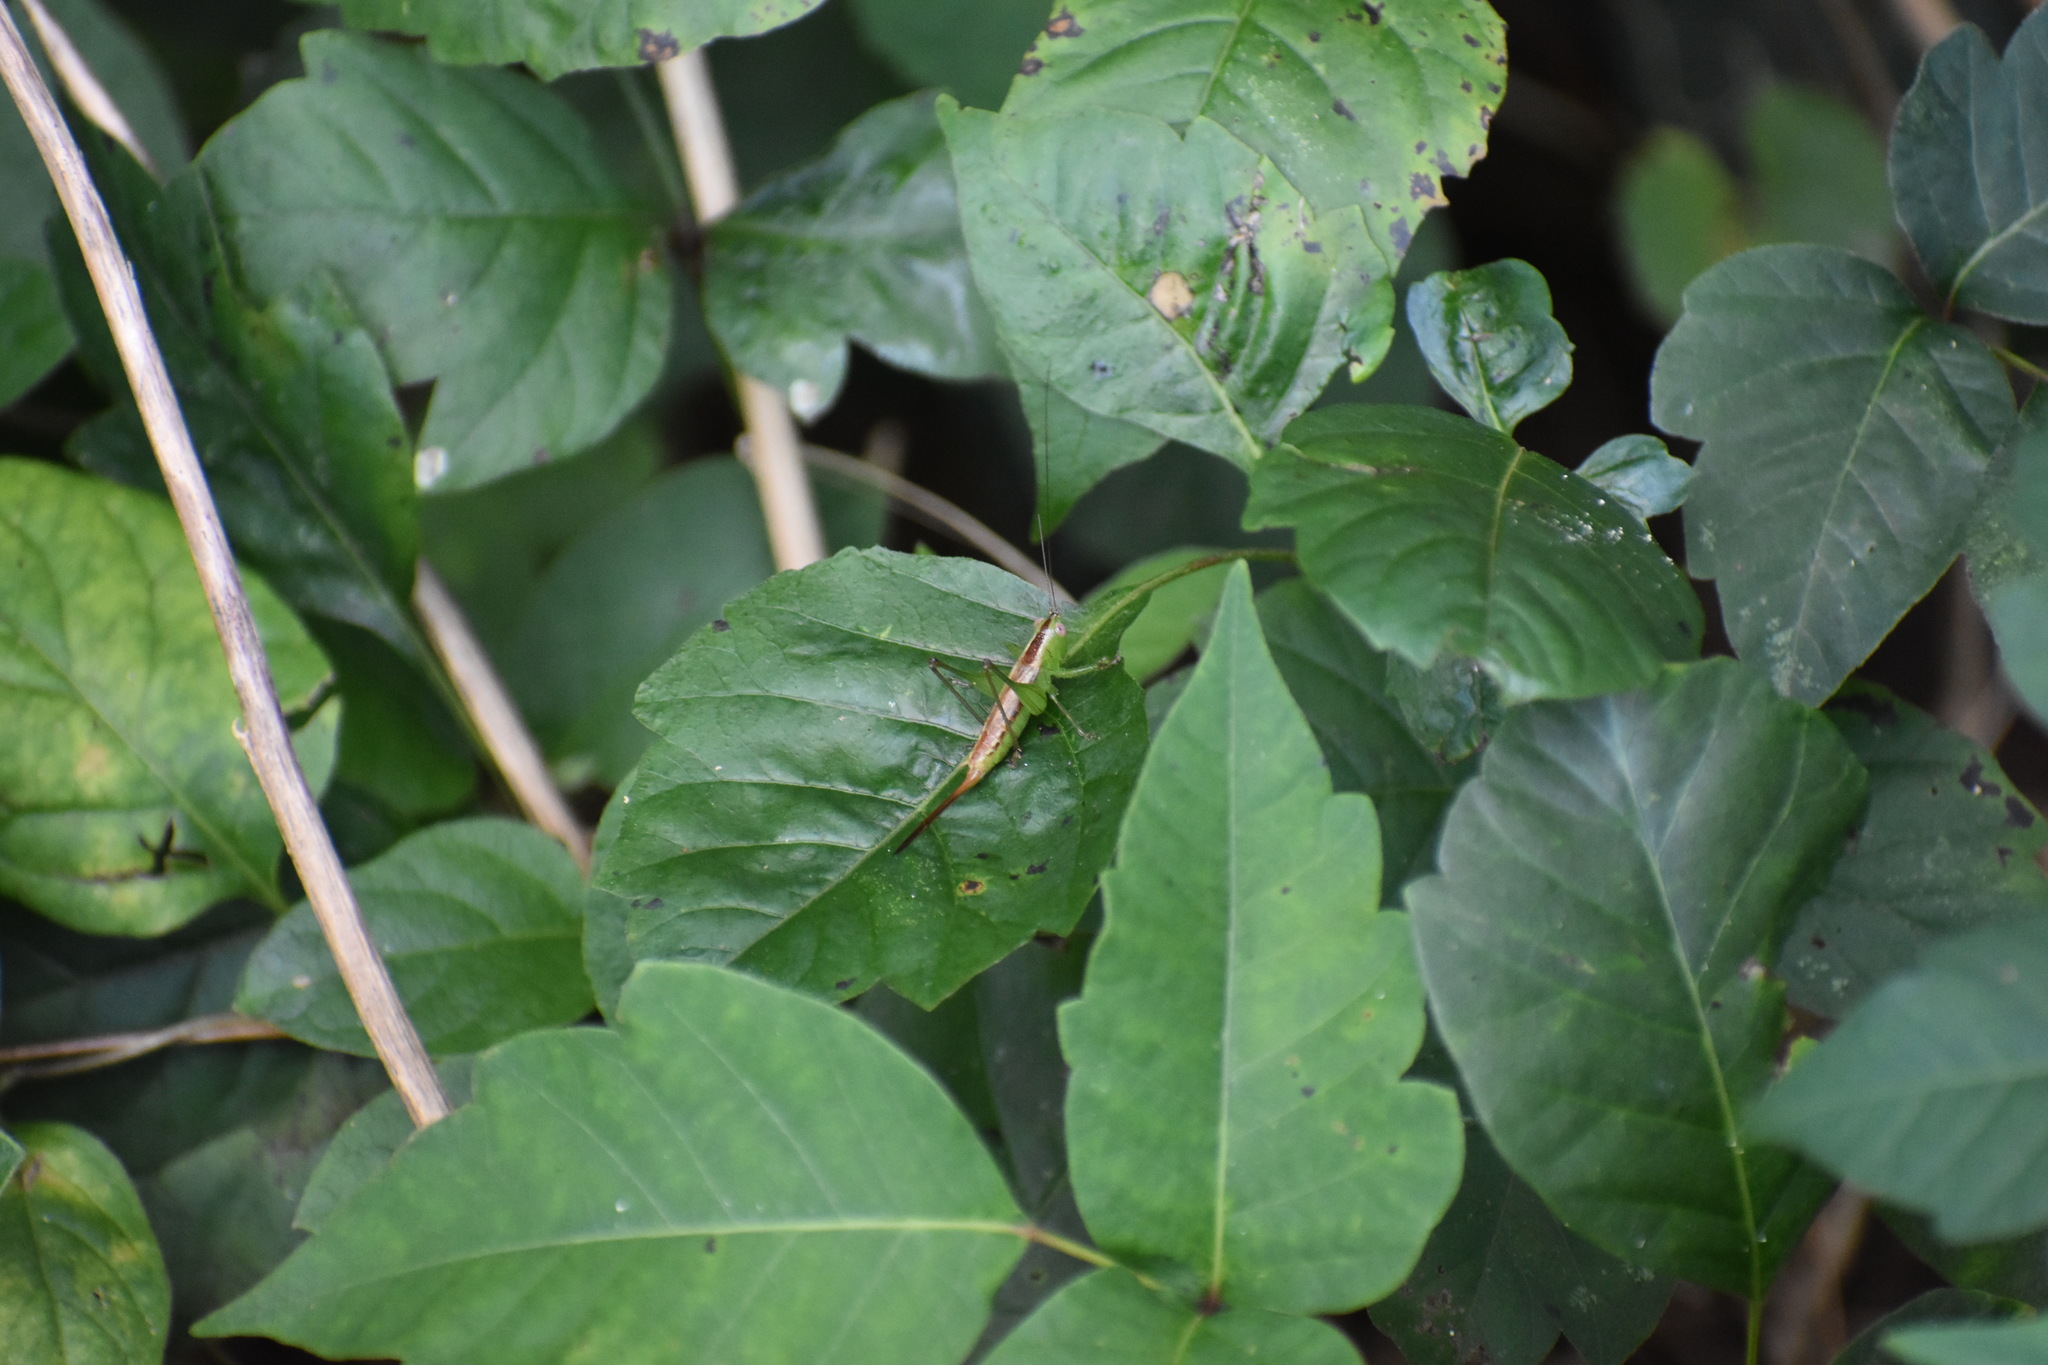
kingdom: Animalia
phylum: Arthropoda
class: Insecta
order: Orthoptera
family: Tettigoniidae
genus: Conocephalus
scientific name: Conocephalus brevipennis
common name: Short-winged meadow katydid
